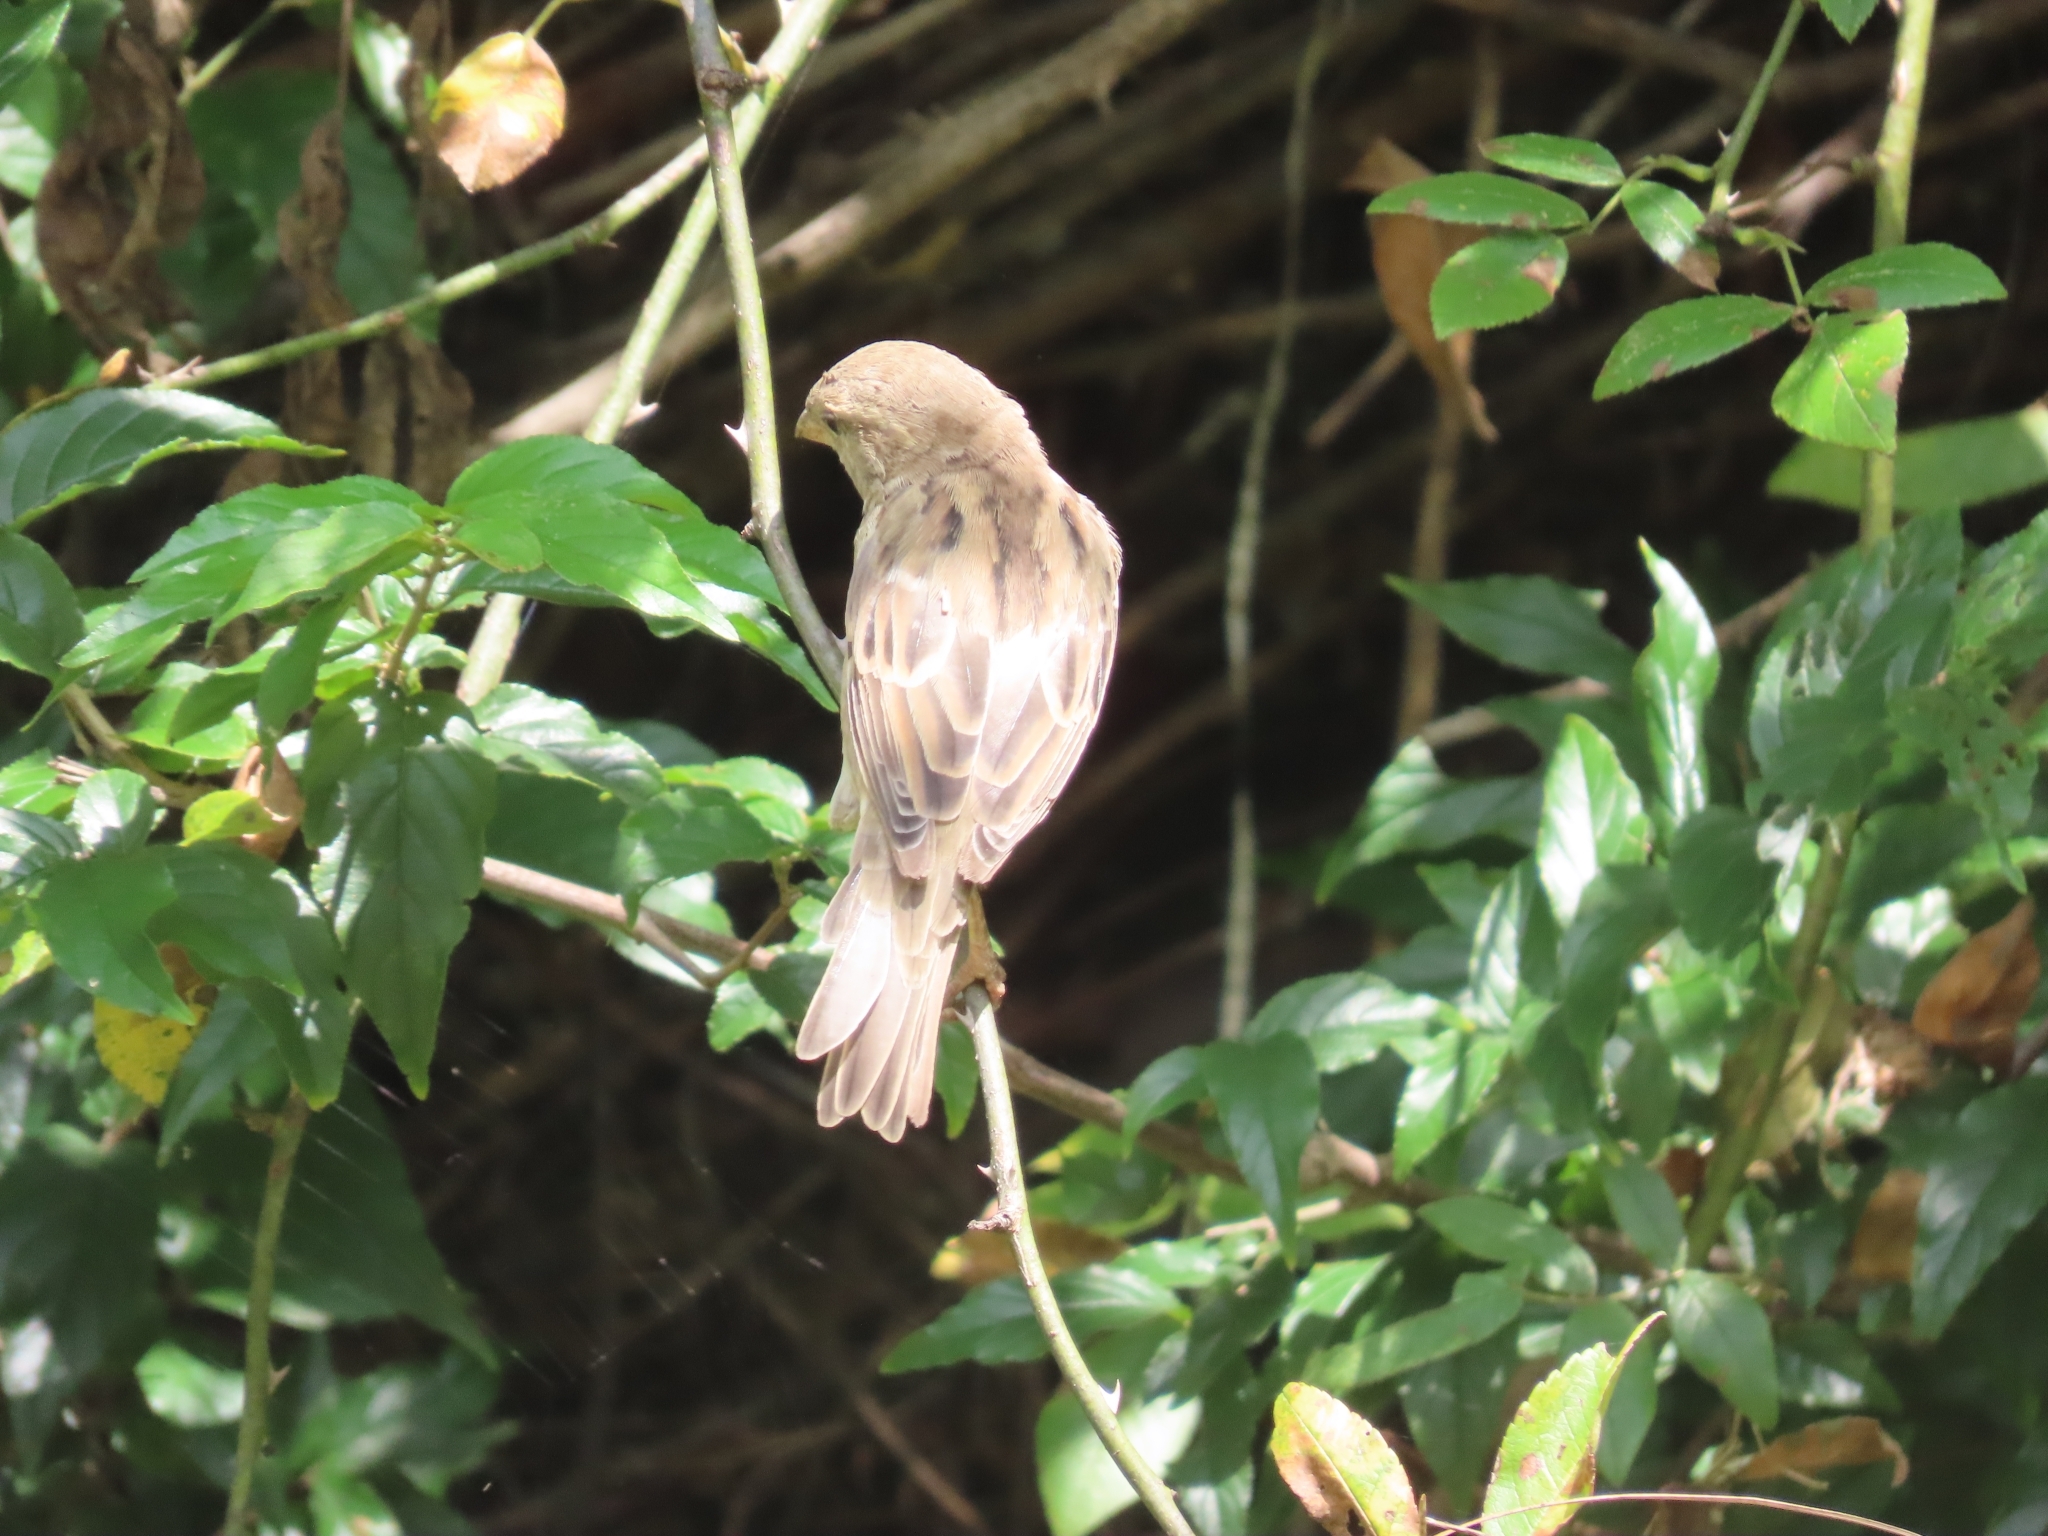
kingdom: Animalia
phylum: Chordata
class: Aves
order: Passeriformes
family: Passeridae
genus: Passer
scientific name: Passer domesticus
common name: House sparrow
